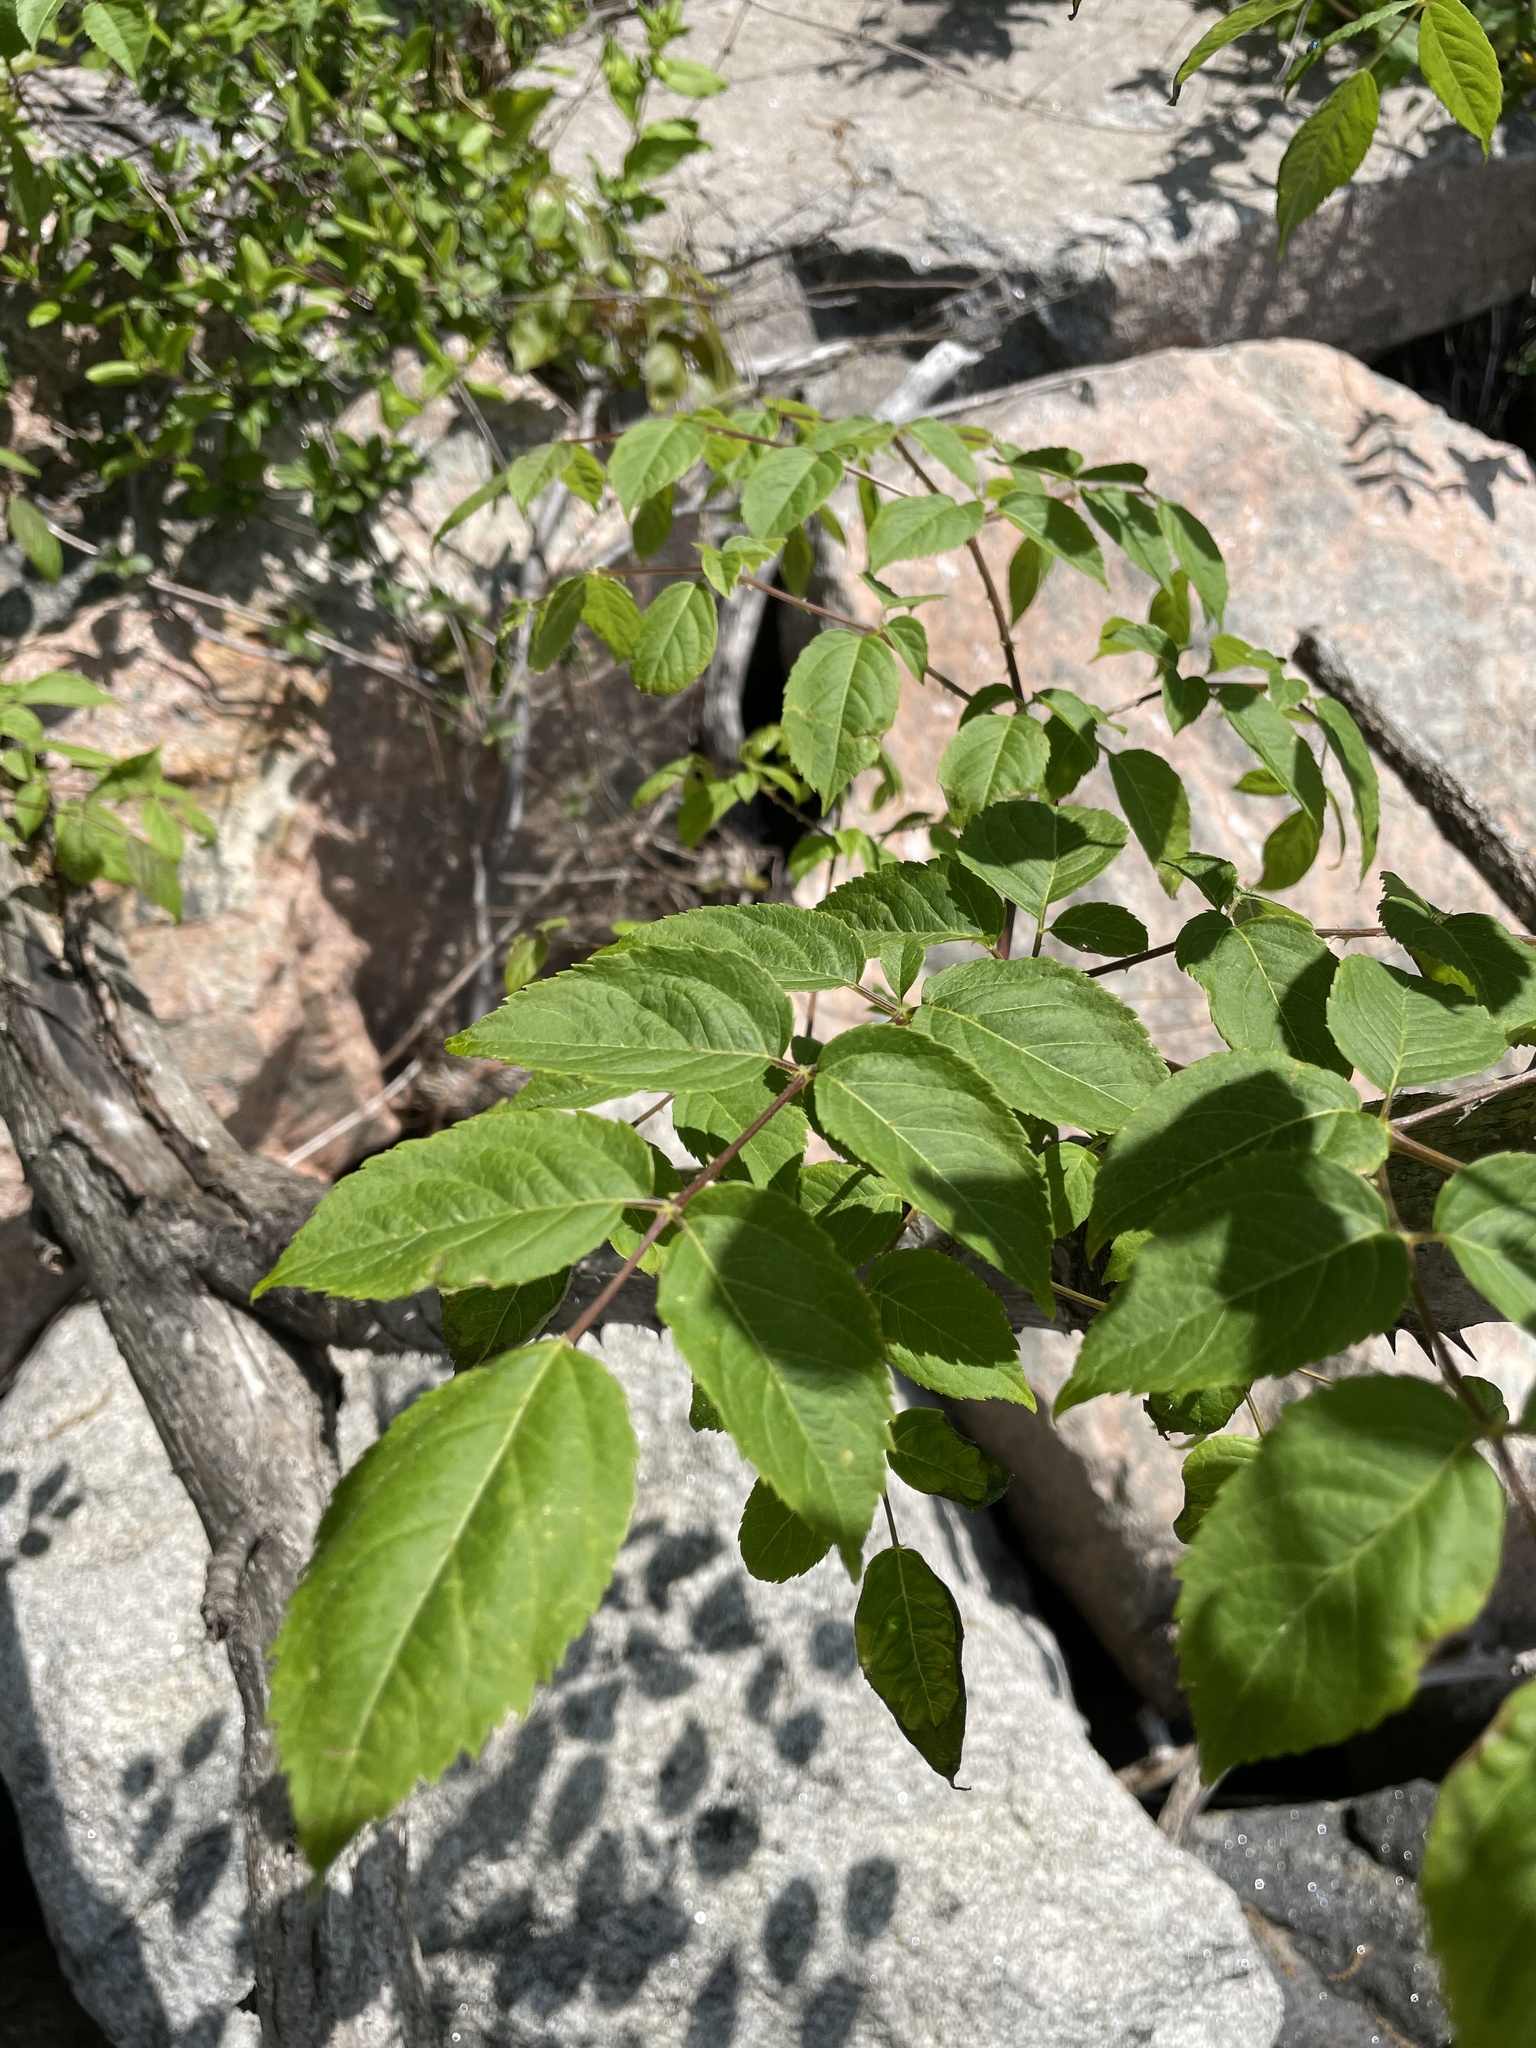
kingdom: Plantae
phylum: Tracheophyta
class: Magnoliopsida
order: Apiales
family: Araliaceae
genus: Aralia
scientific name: Aralia spinosa
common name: Hercules'-club
